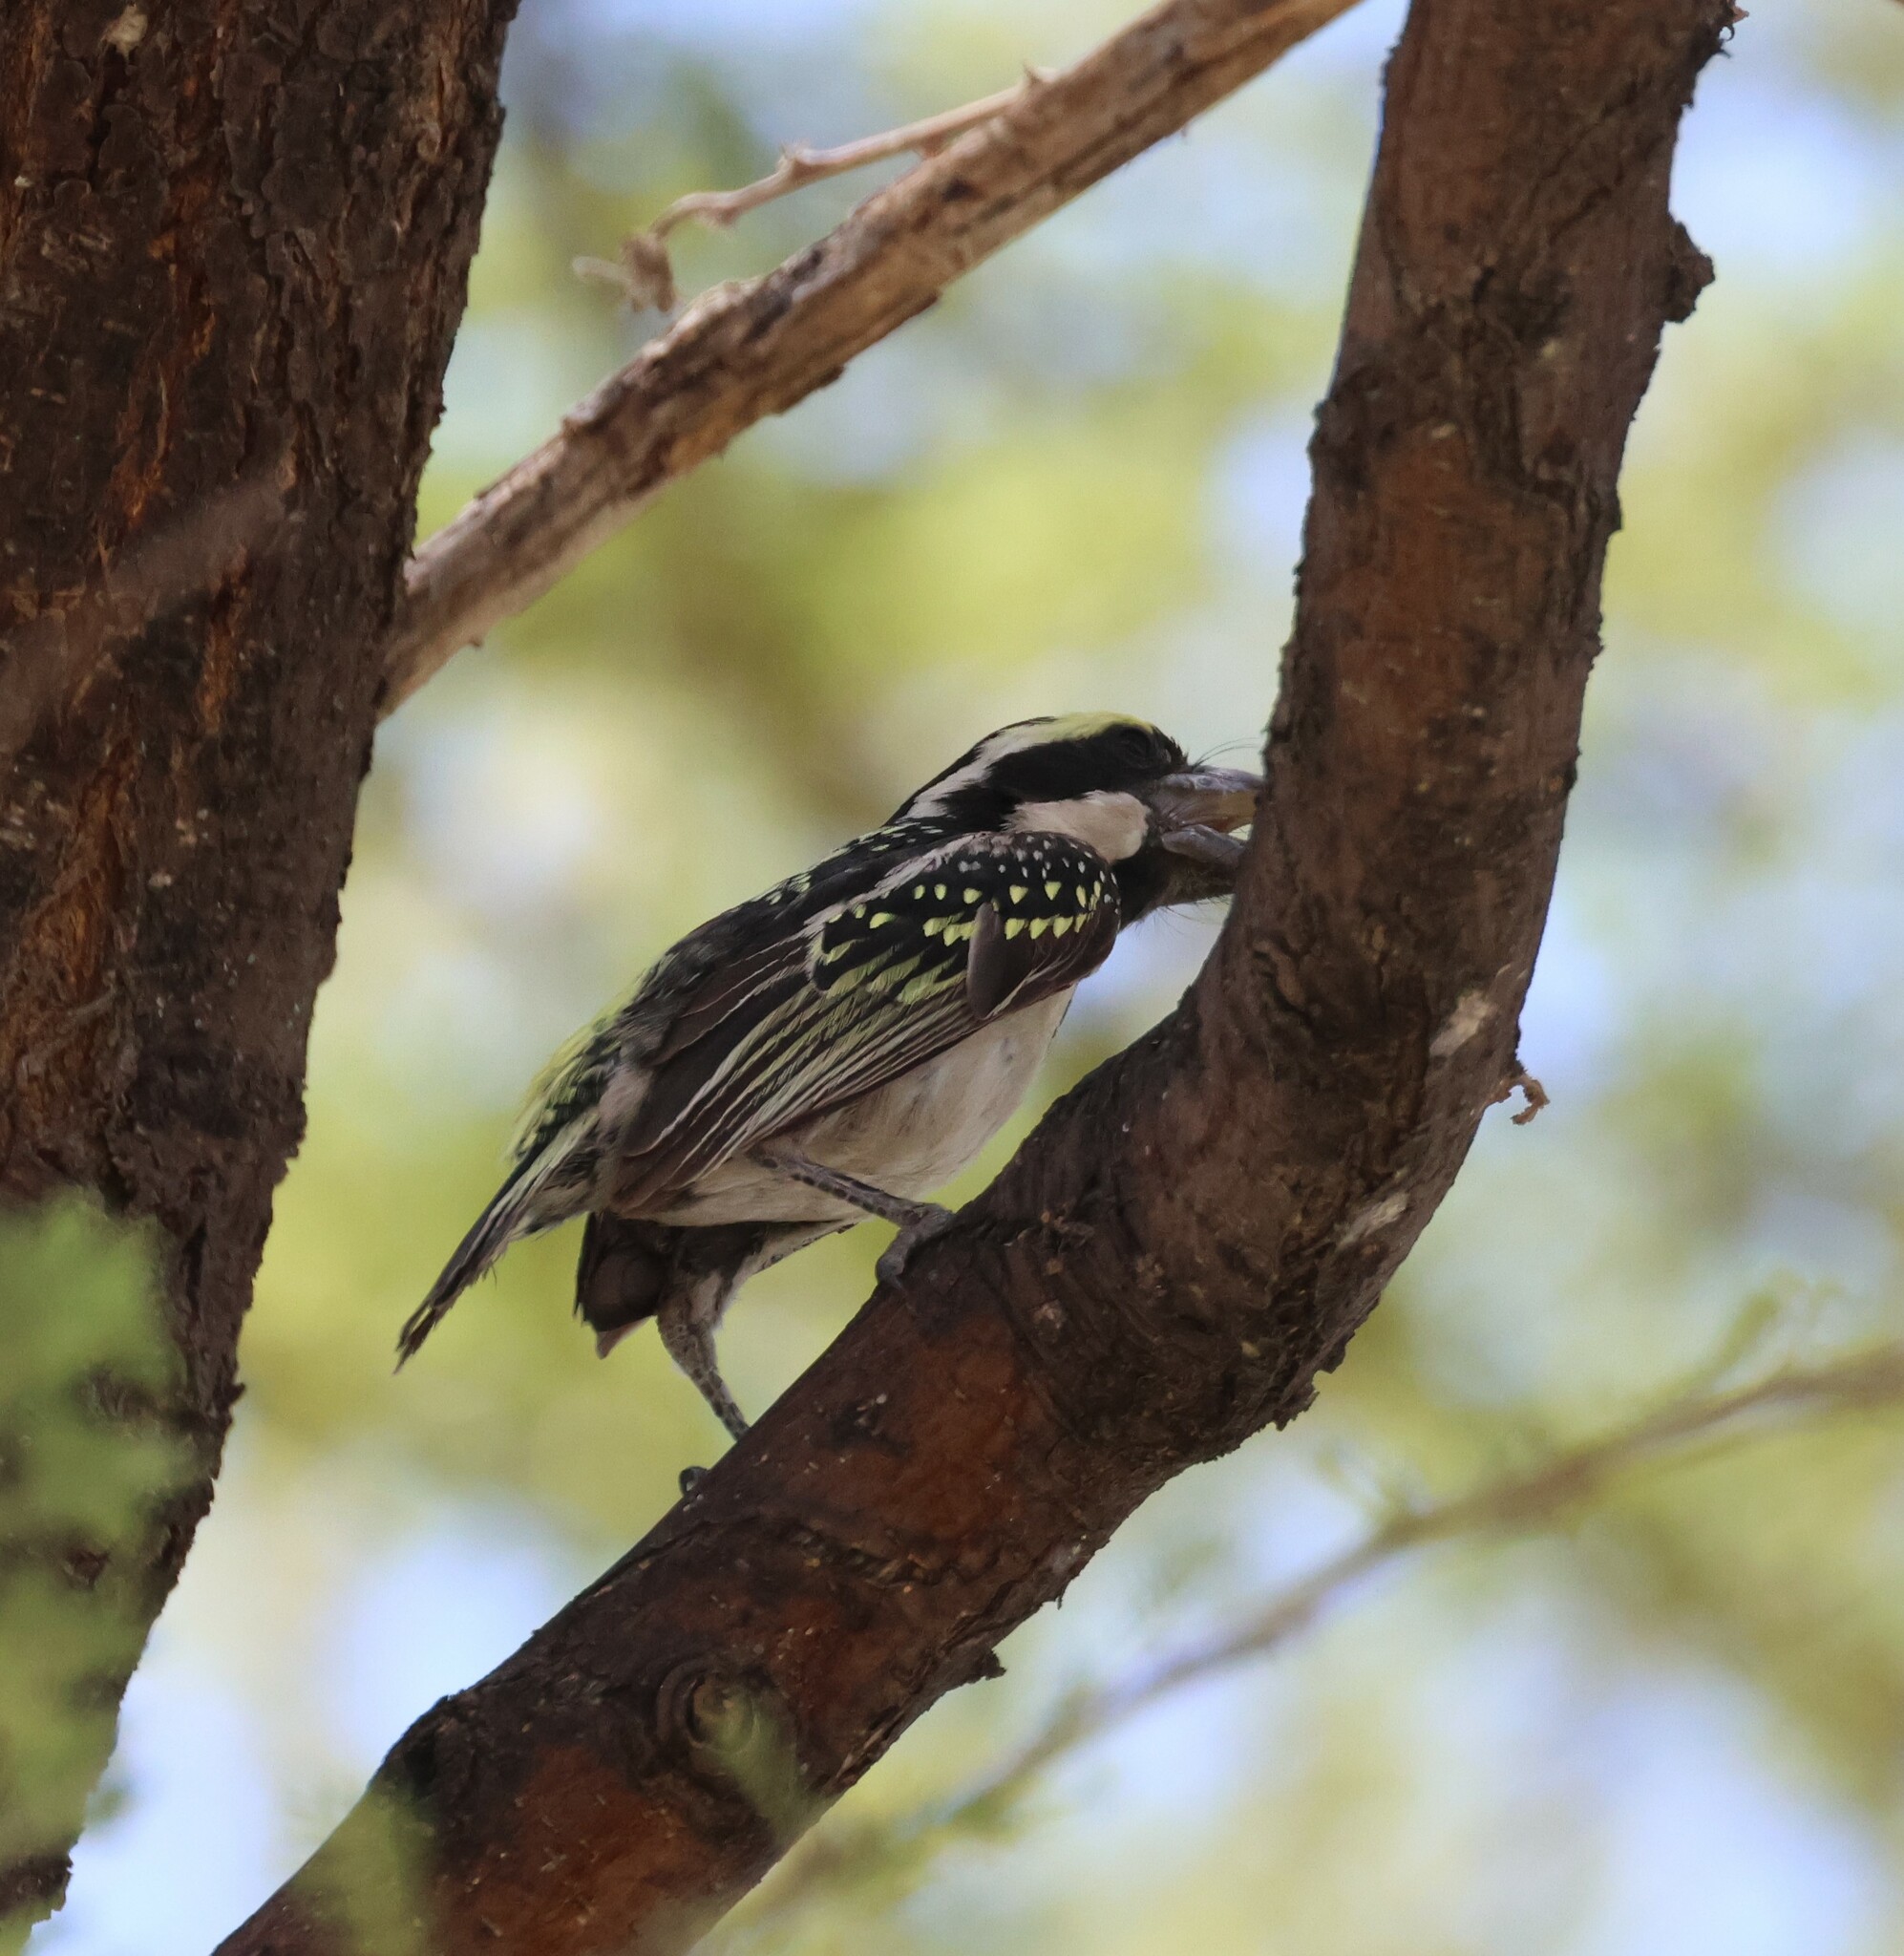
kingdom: Animalia
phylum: Chordata
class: Aves
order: Piciformes
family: Lybiidae
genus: Tricholaema
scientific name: Tricholaema leucomelas
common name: Acacia pied barbet
